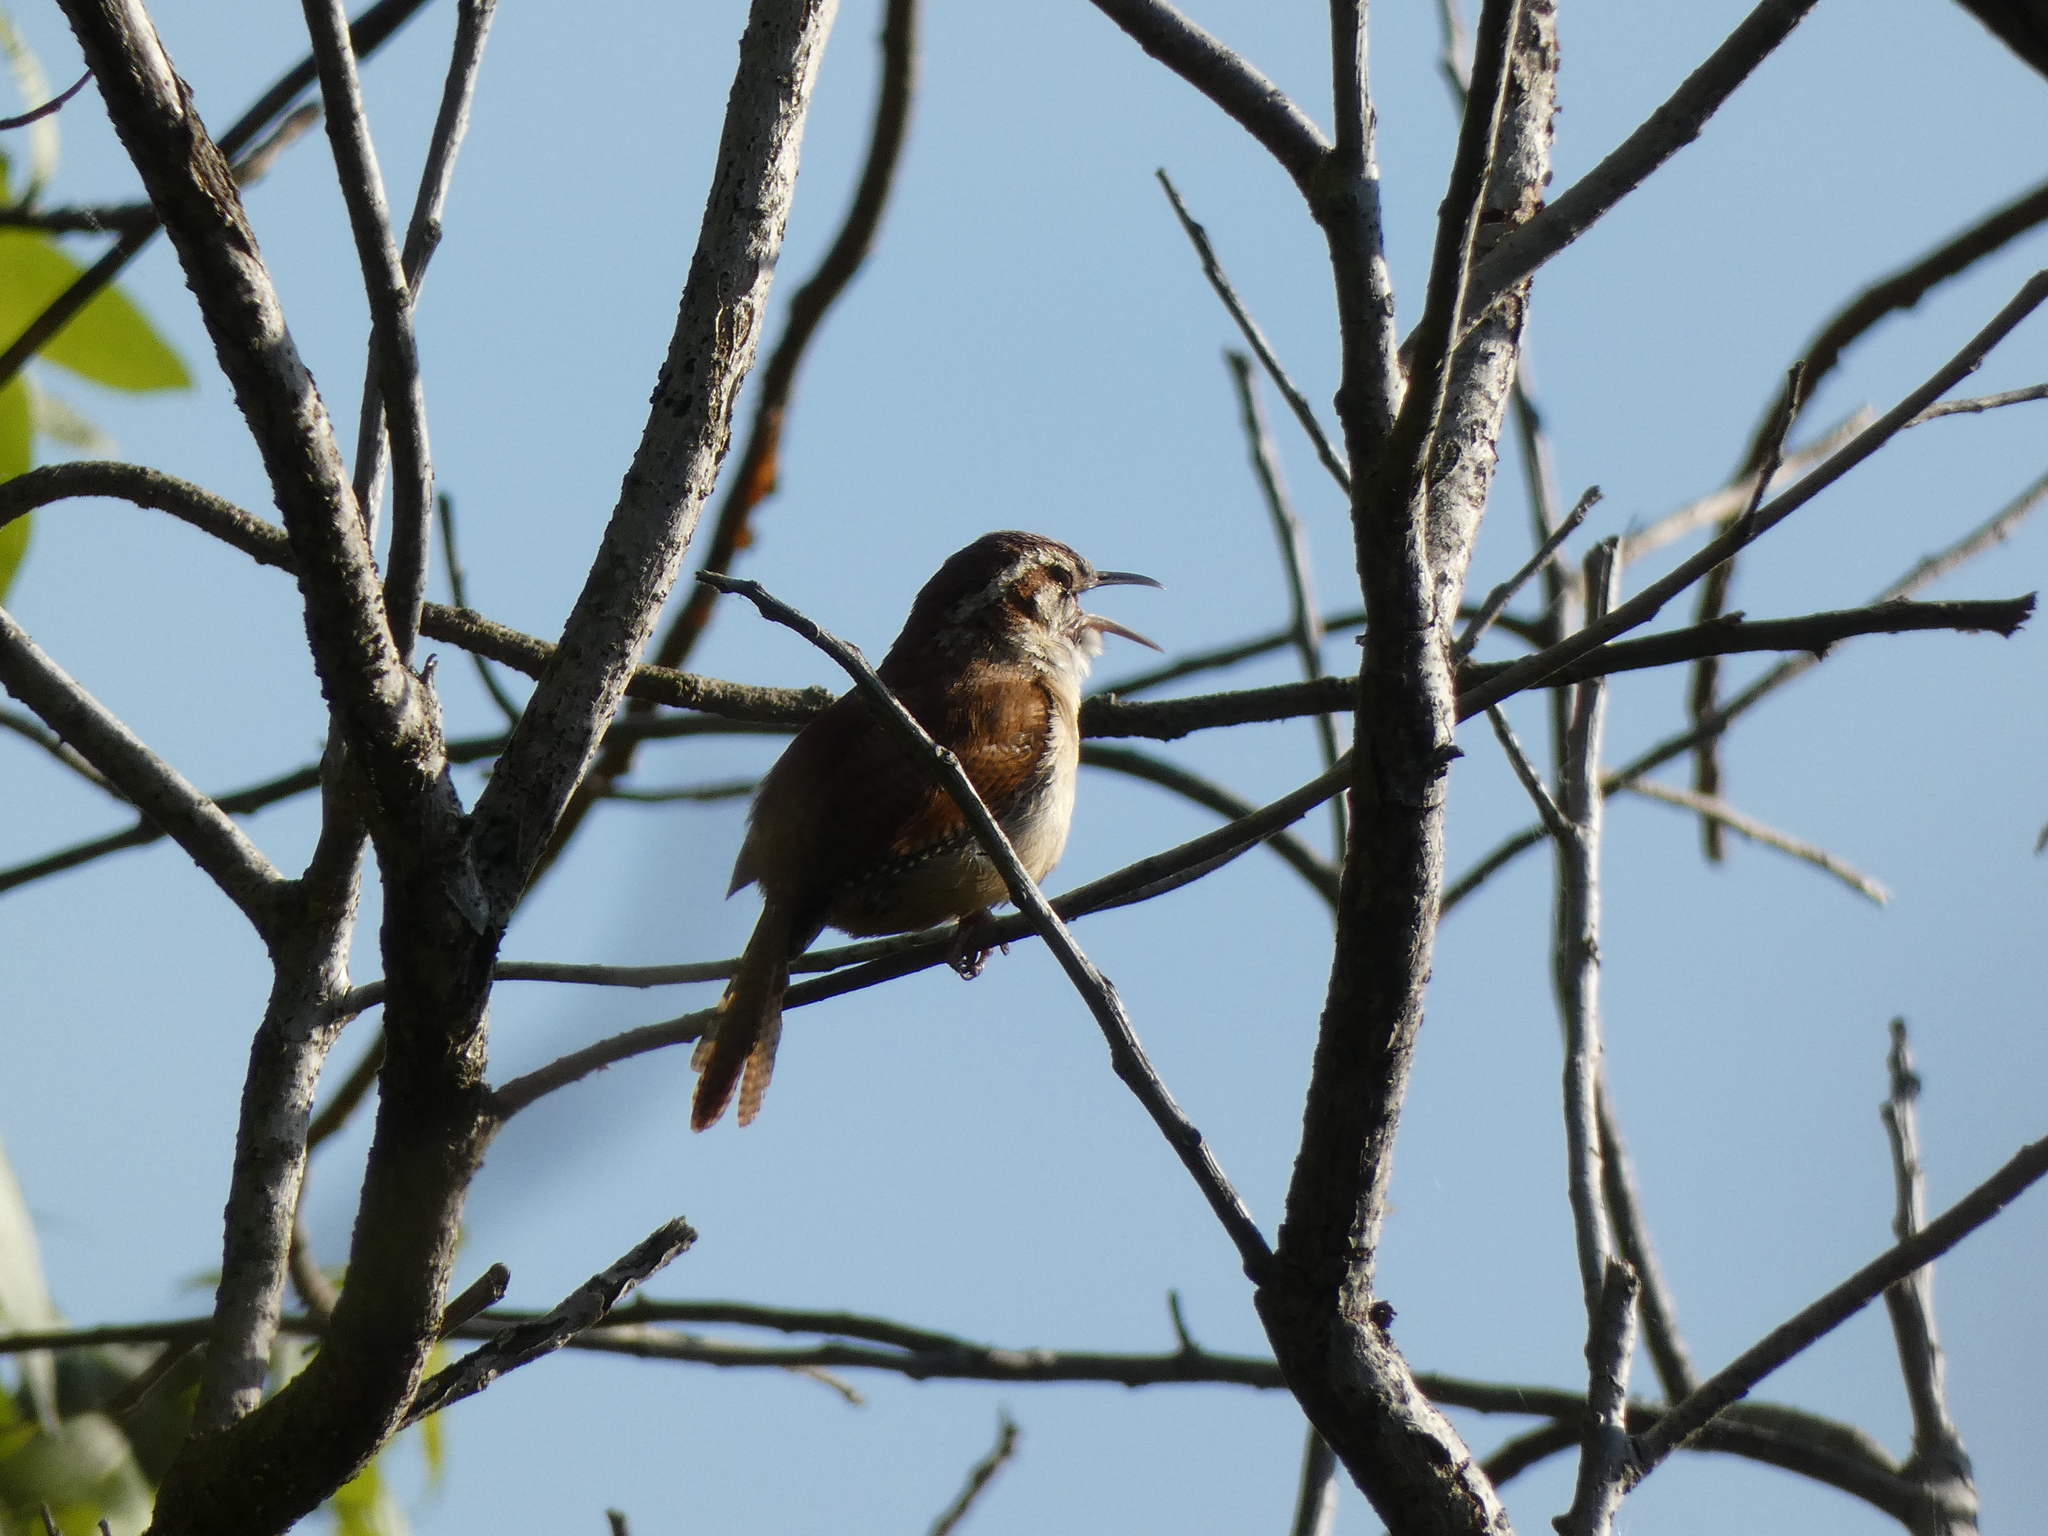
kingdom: Animalia
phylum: Chordata
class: Aves
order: Passeriformes
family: Troglodytidae
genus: Thryothorus
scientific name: Thryothorus ludovicianus
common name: Carolina wren
